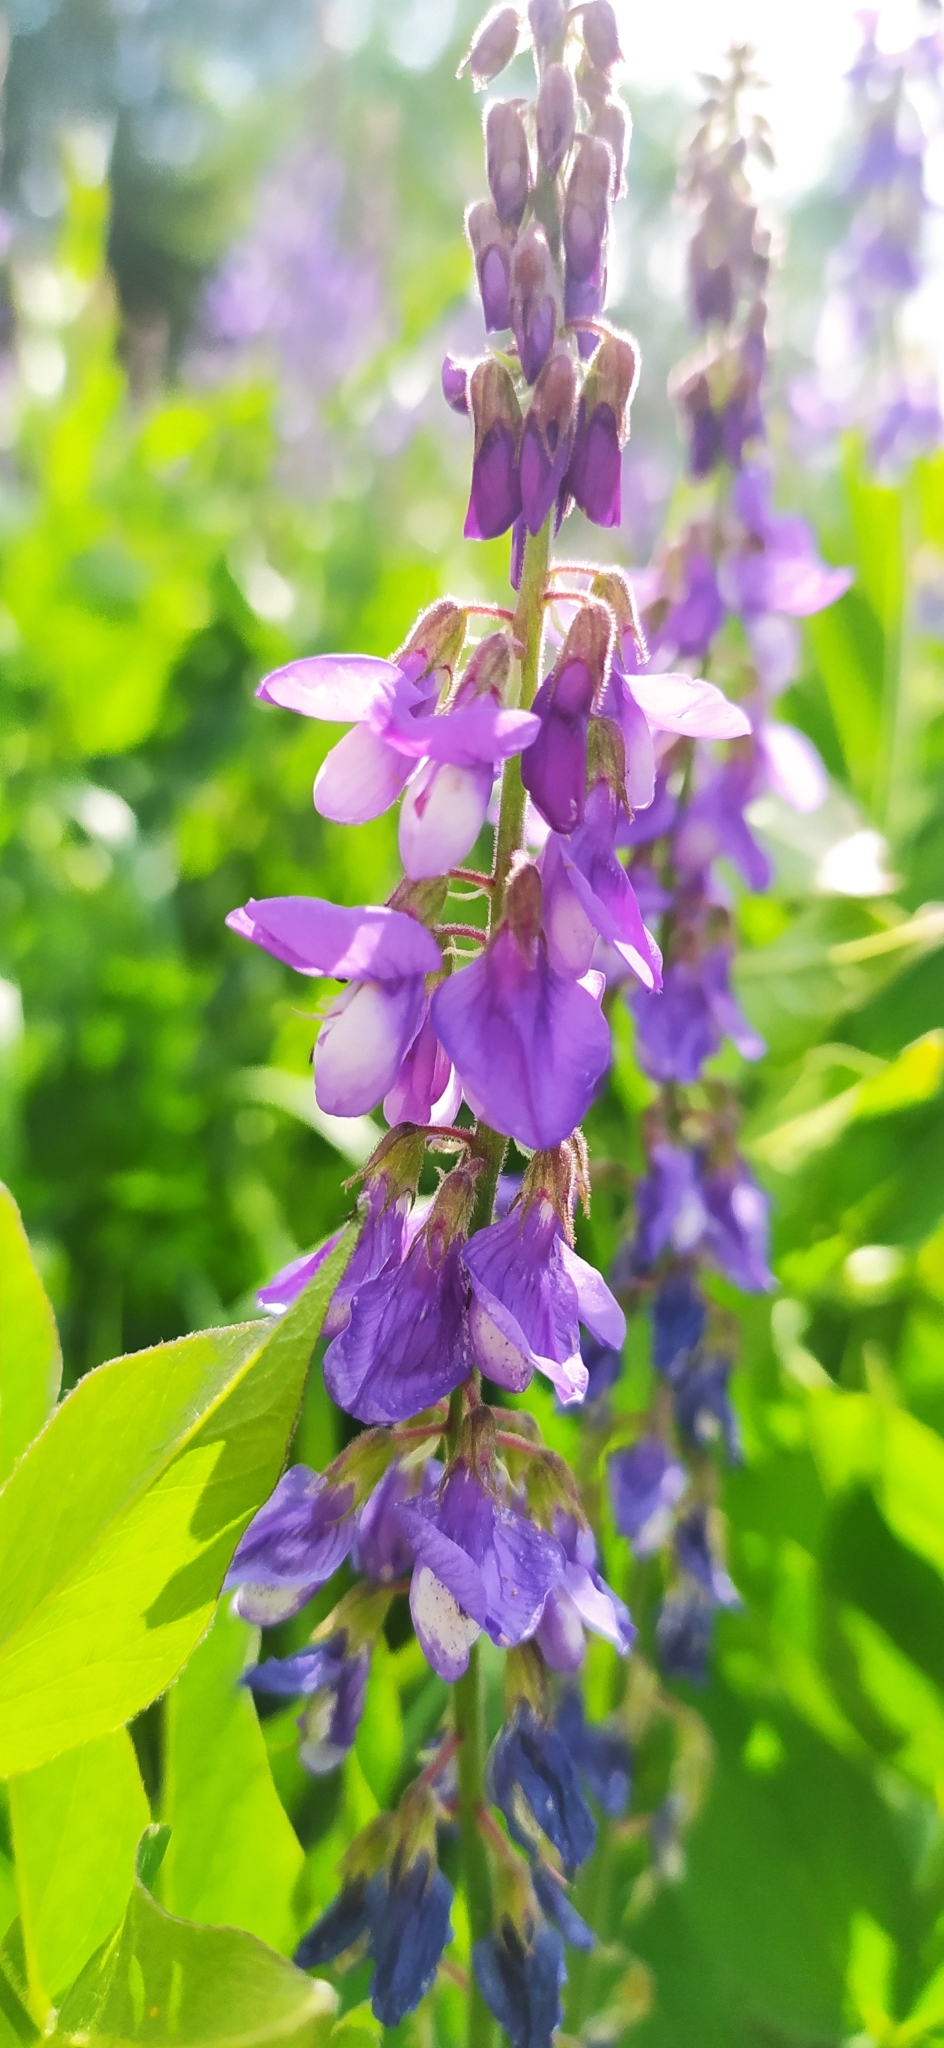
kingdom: Plantae
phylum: Tracheophyta
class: Magnoliopsida
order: Fabales
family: Fabaceae
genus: Galega
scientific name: Galega orientalis
